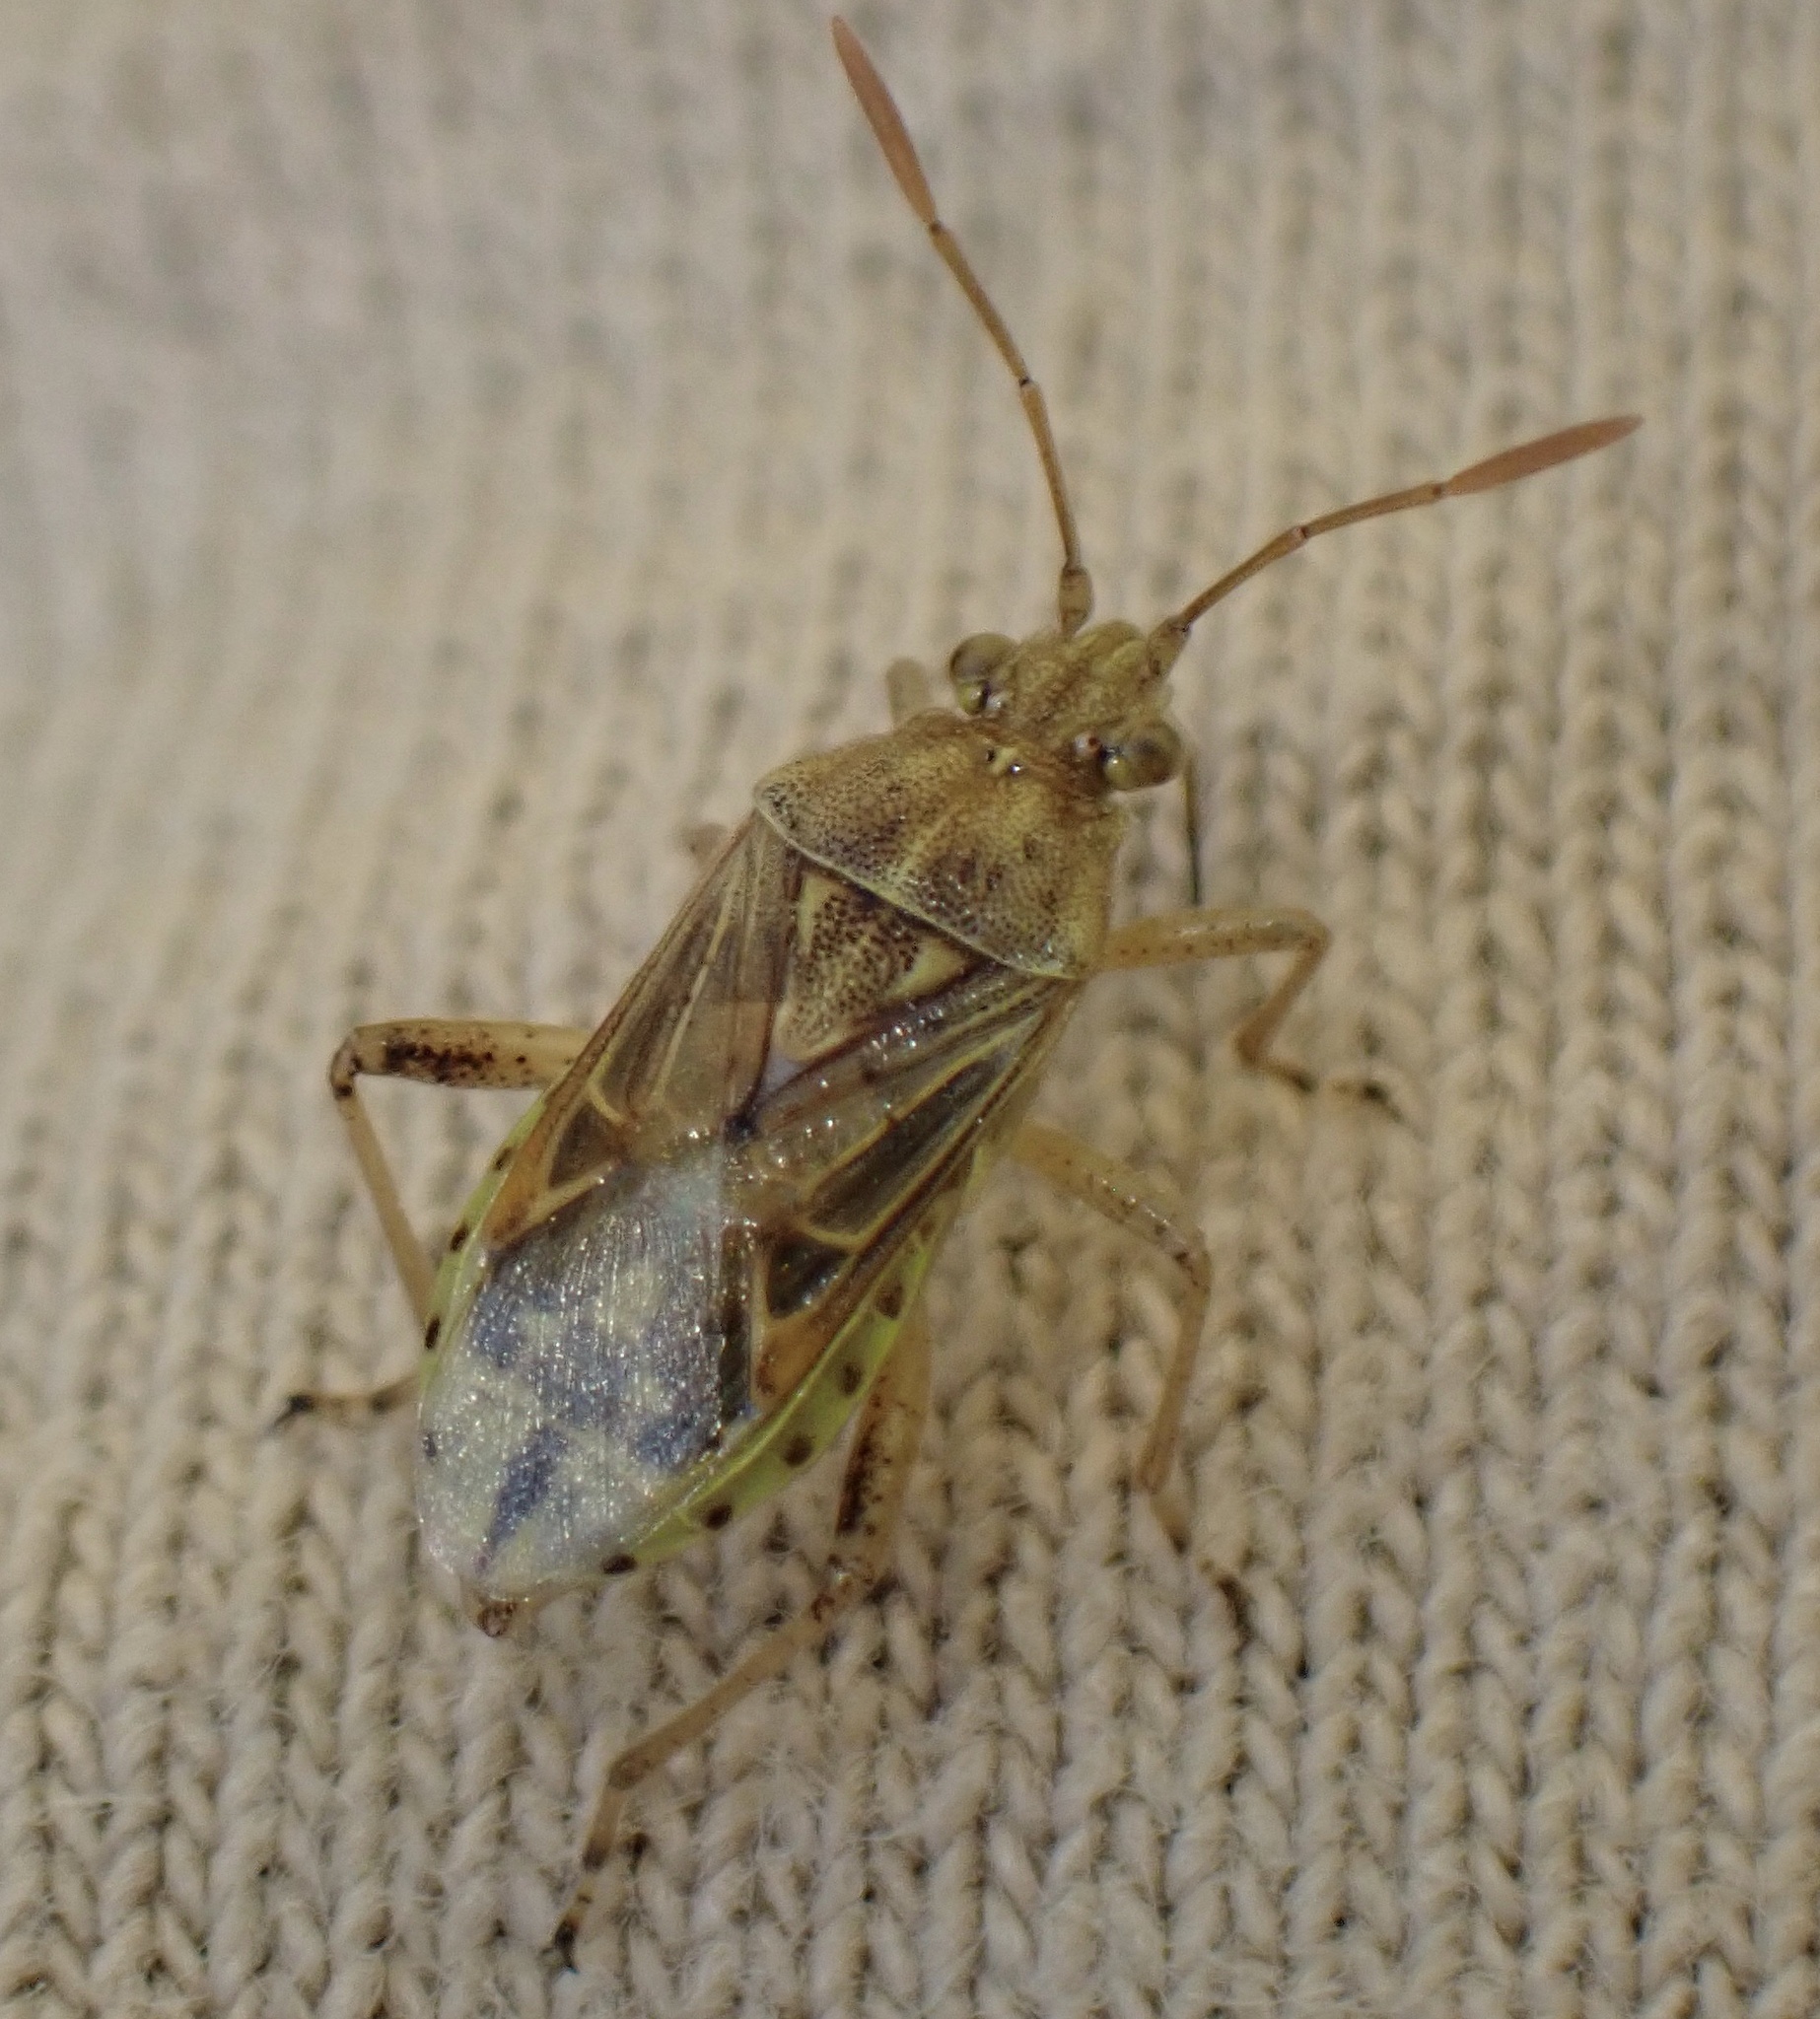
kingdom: Animalia
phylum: Arthropoda
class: Insecta
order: Hemiptera
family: Rhopalidae
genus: Stictopleurus
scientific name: Stictopleurus abutilon
